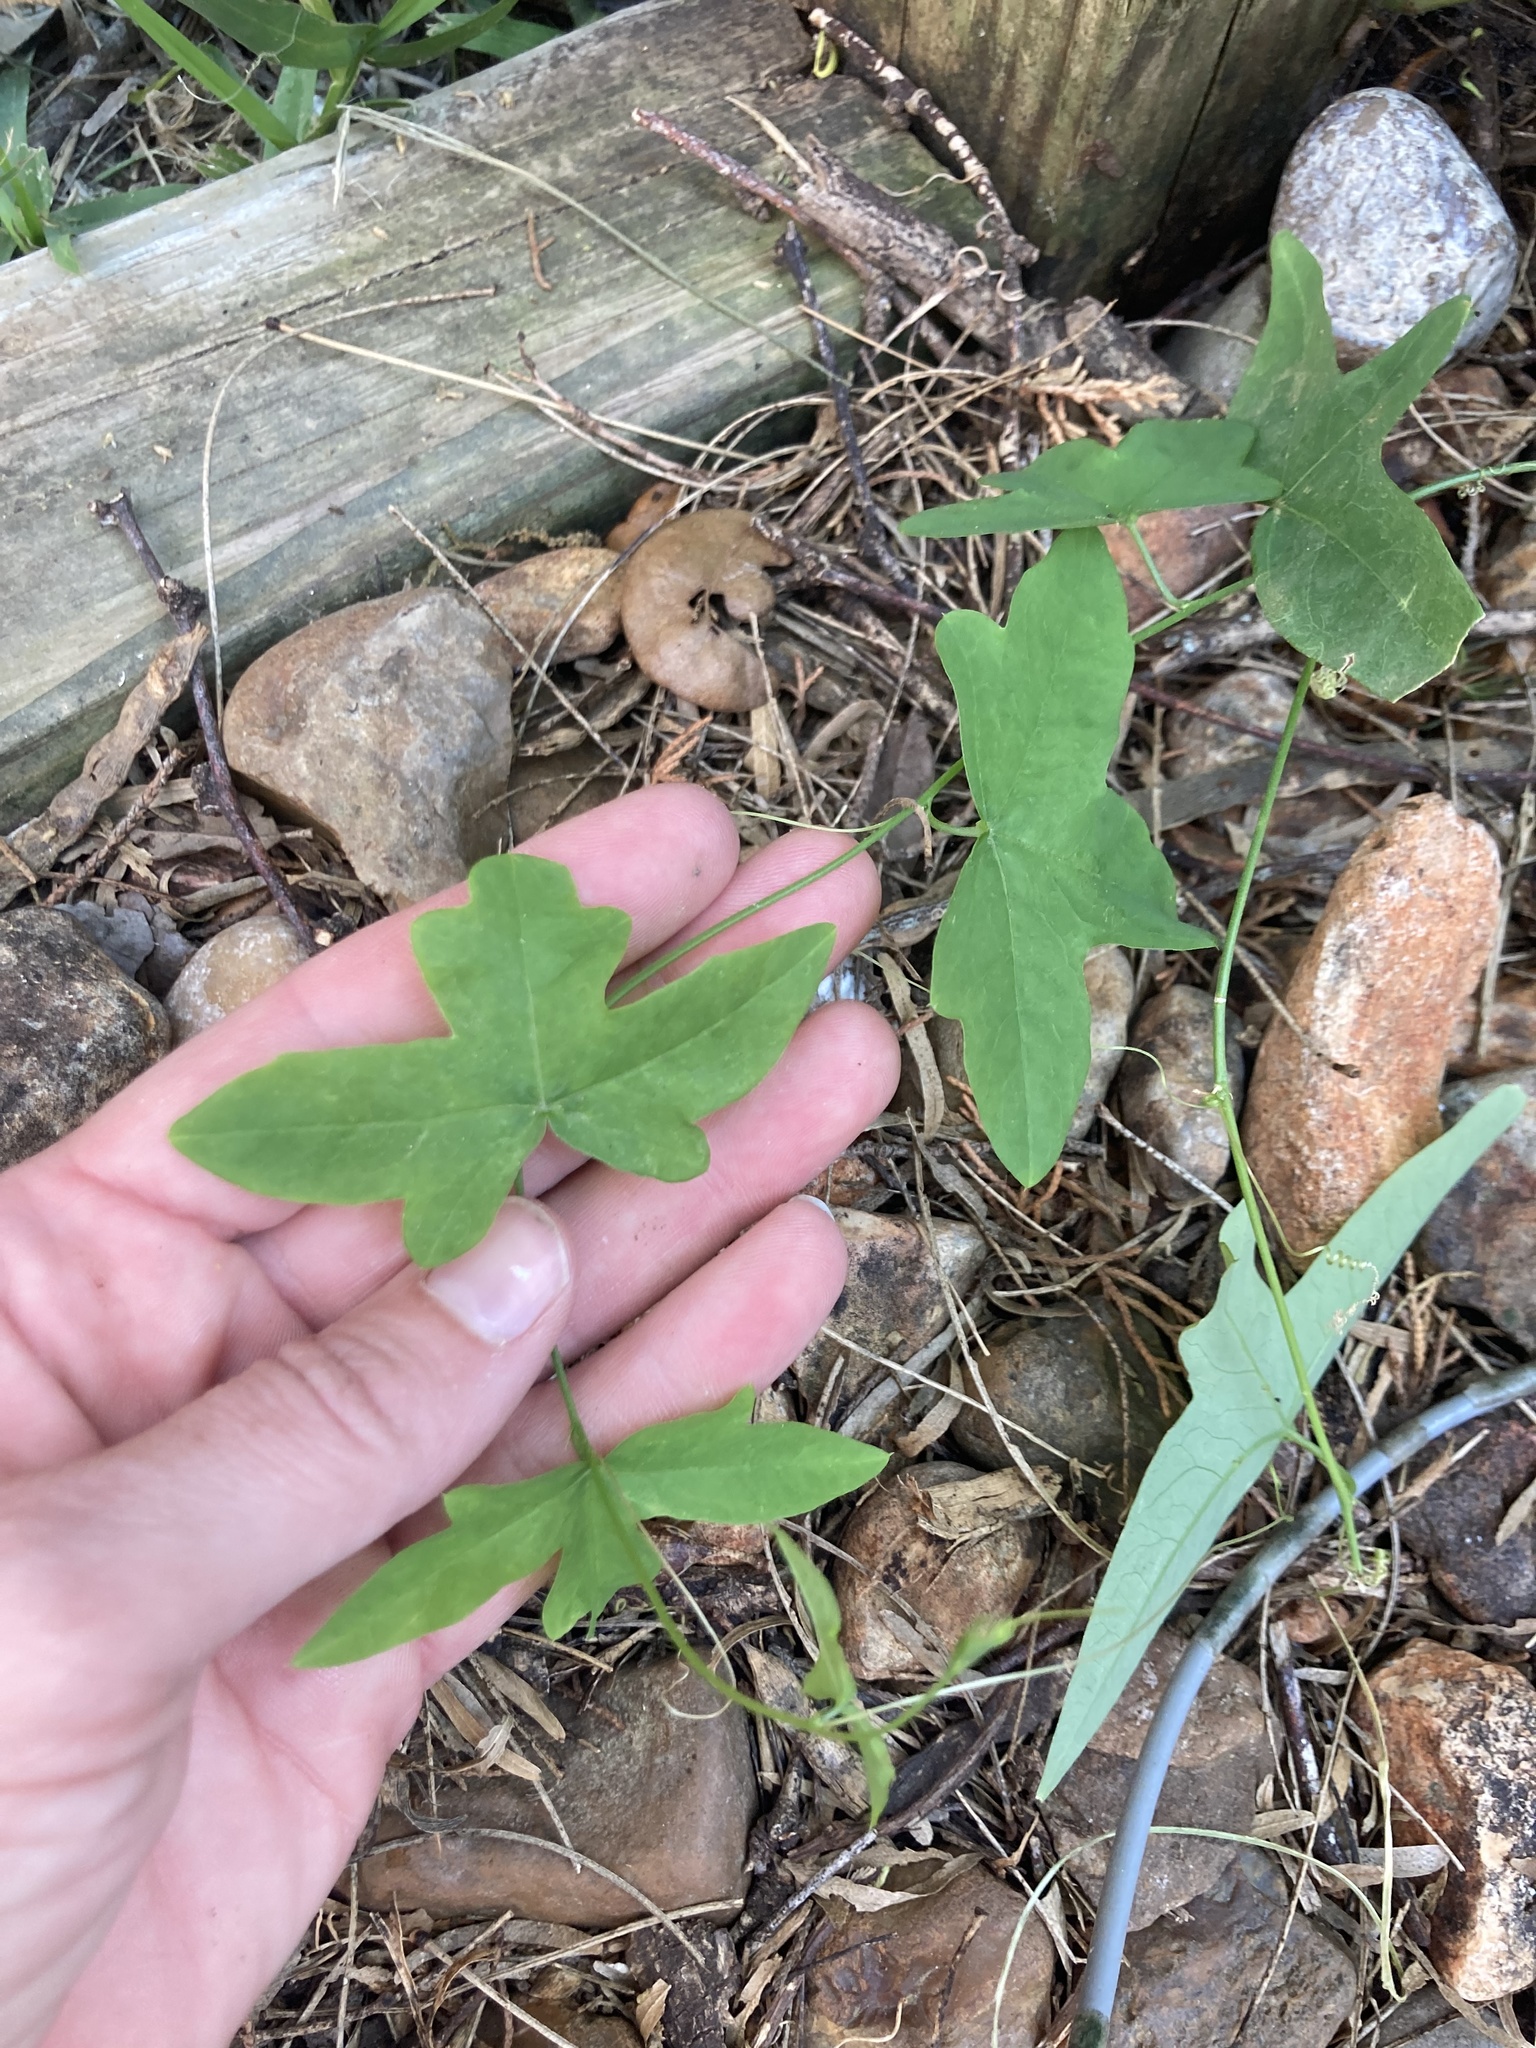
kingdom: Plantae
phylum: Tracheophyta
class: Magnoliopsida
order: Malpighiales
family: Passifloraceae
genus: Passiflora
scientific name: Passiflora tenuiloba
